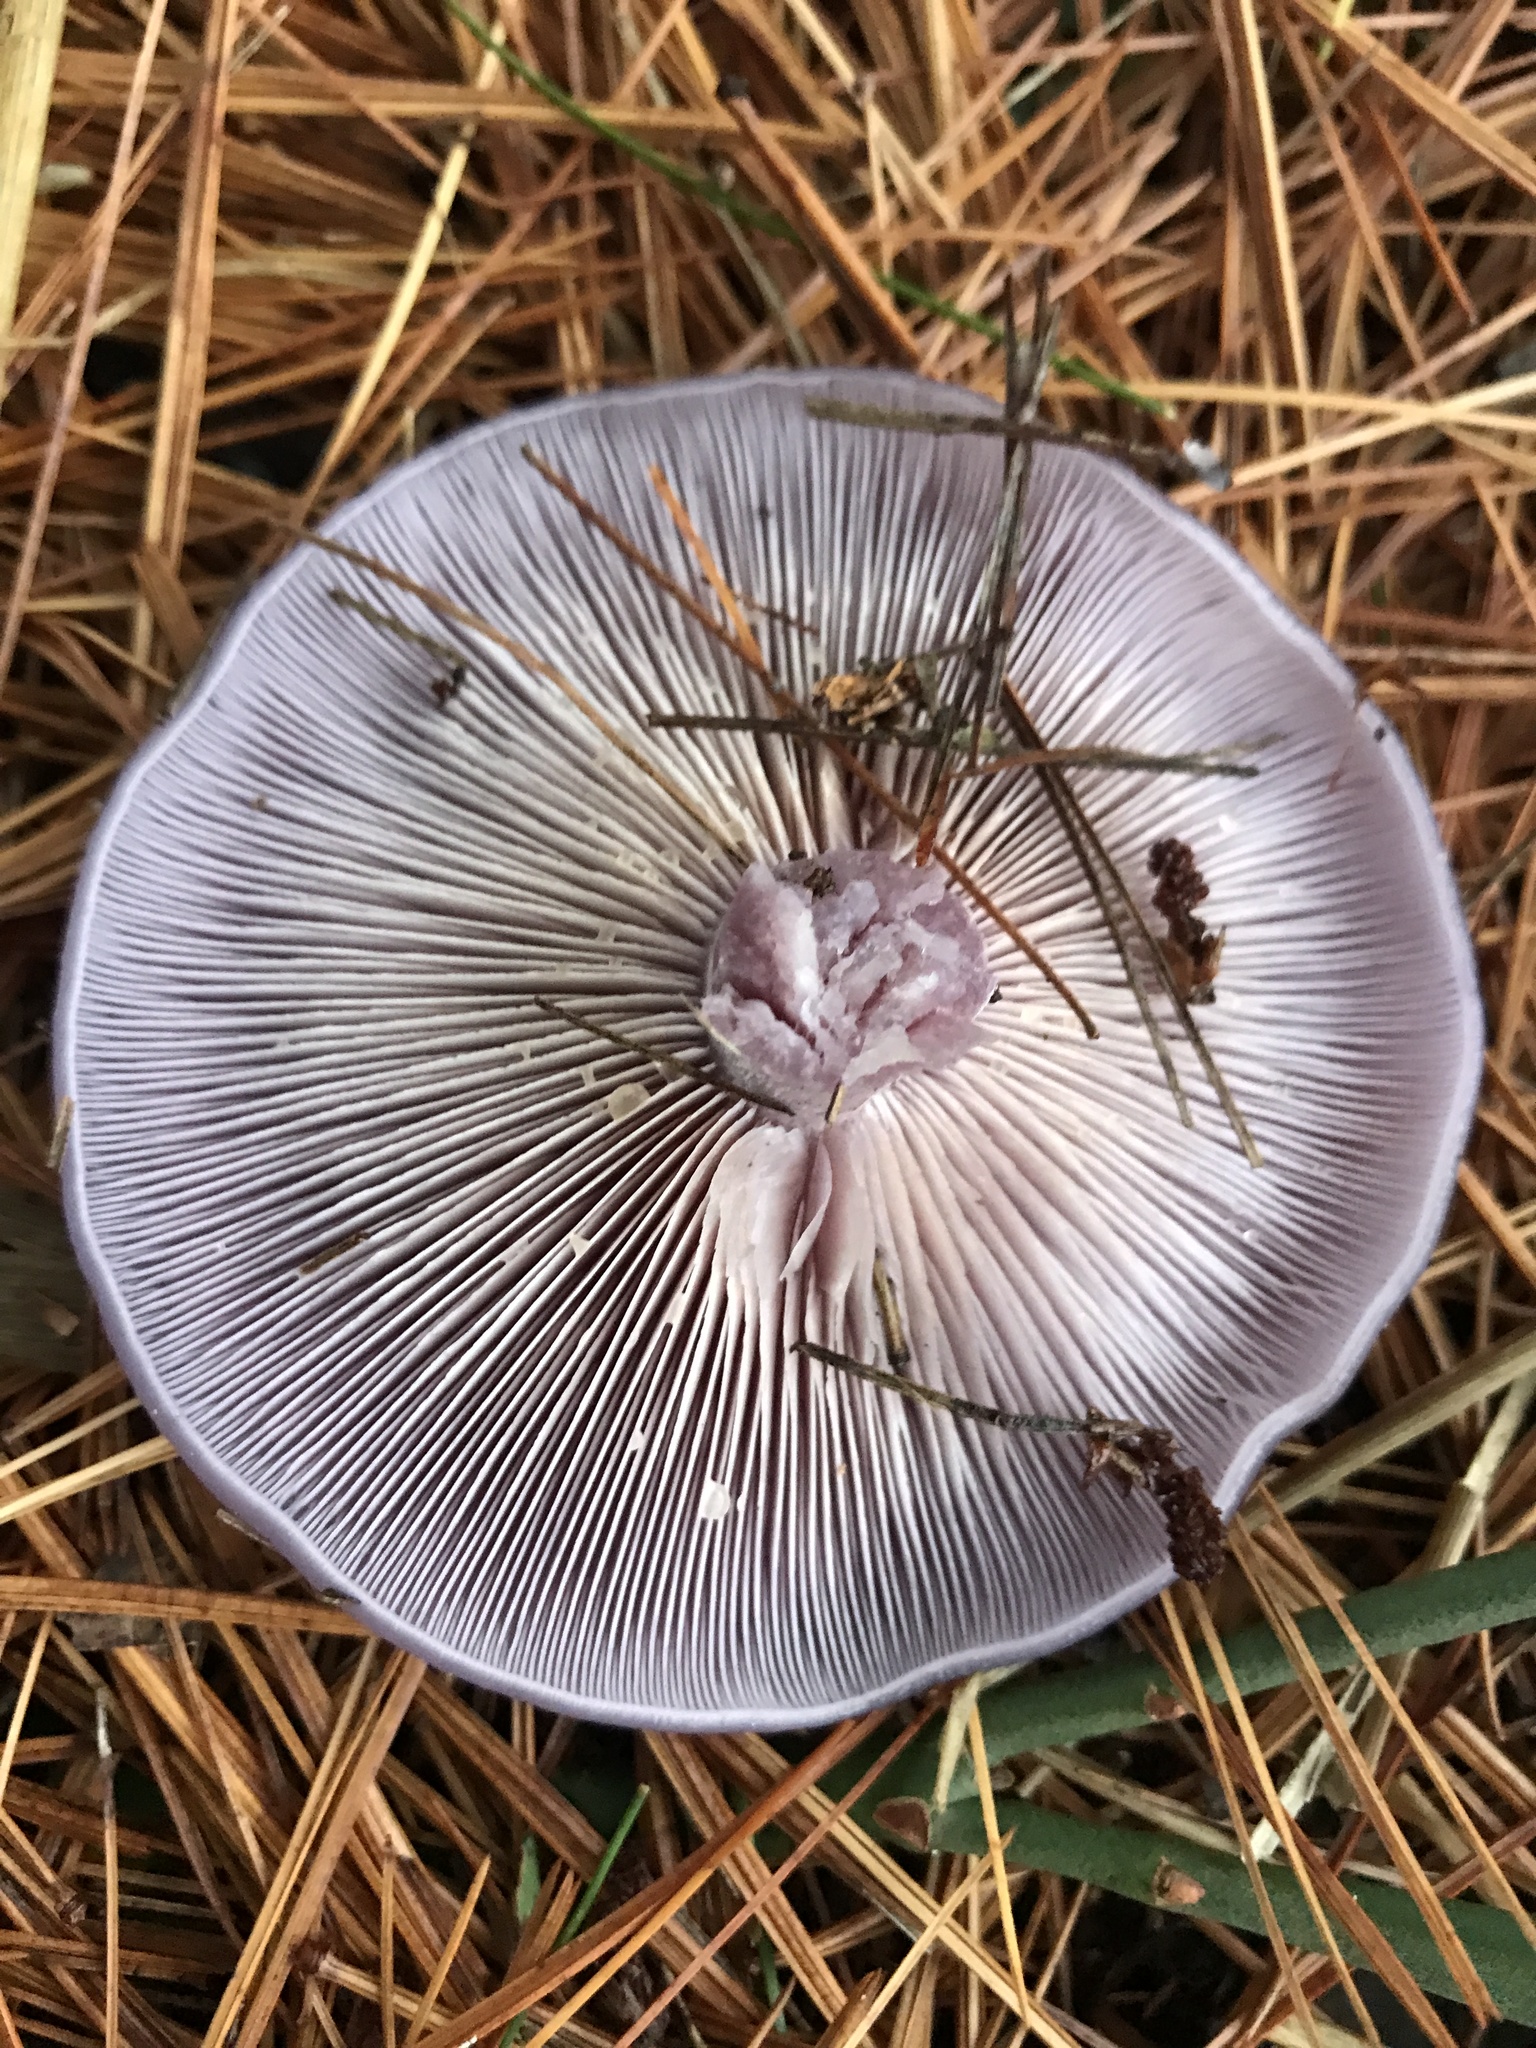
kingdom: Fungi
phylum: Basidiomycota
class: Agaricomycetes
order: Agaricales
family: Tricholomataceae
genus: Collybia
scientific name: Collybia
